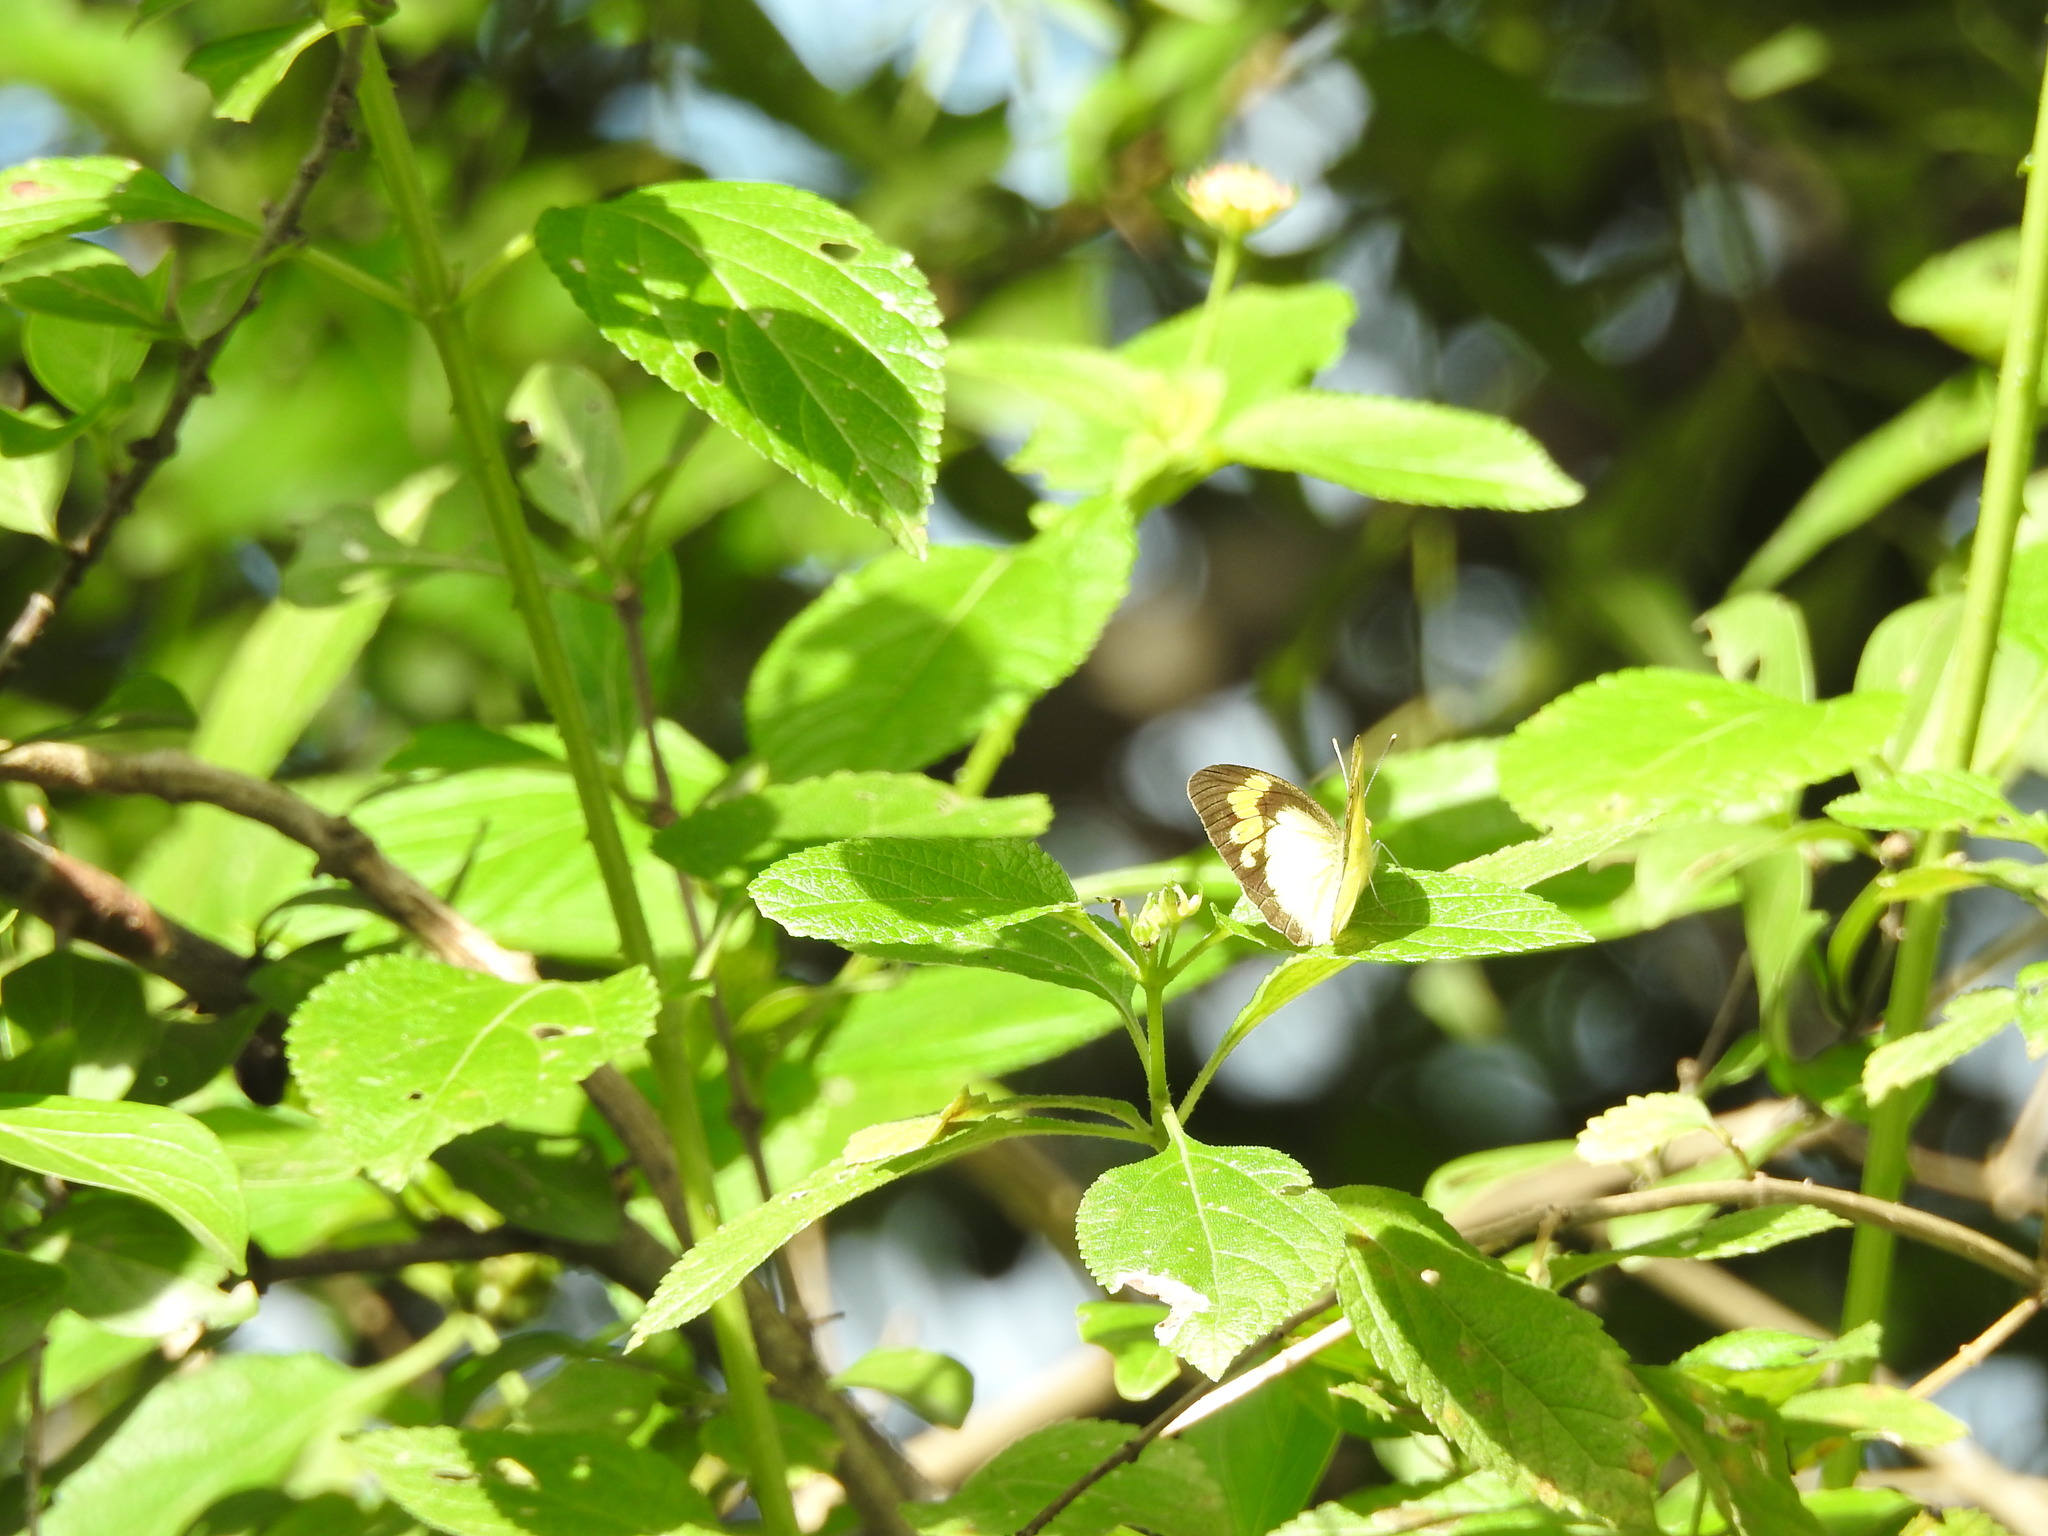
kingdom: Animalia
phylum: Arthropoda
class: Insecta
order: Lepidoptera
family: Pieridae
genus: Ixias
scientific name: Ixias pyrene
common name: Yellow orange tip
